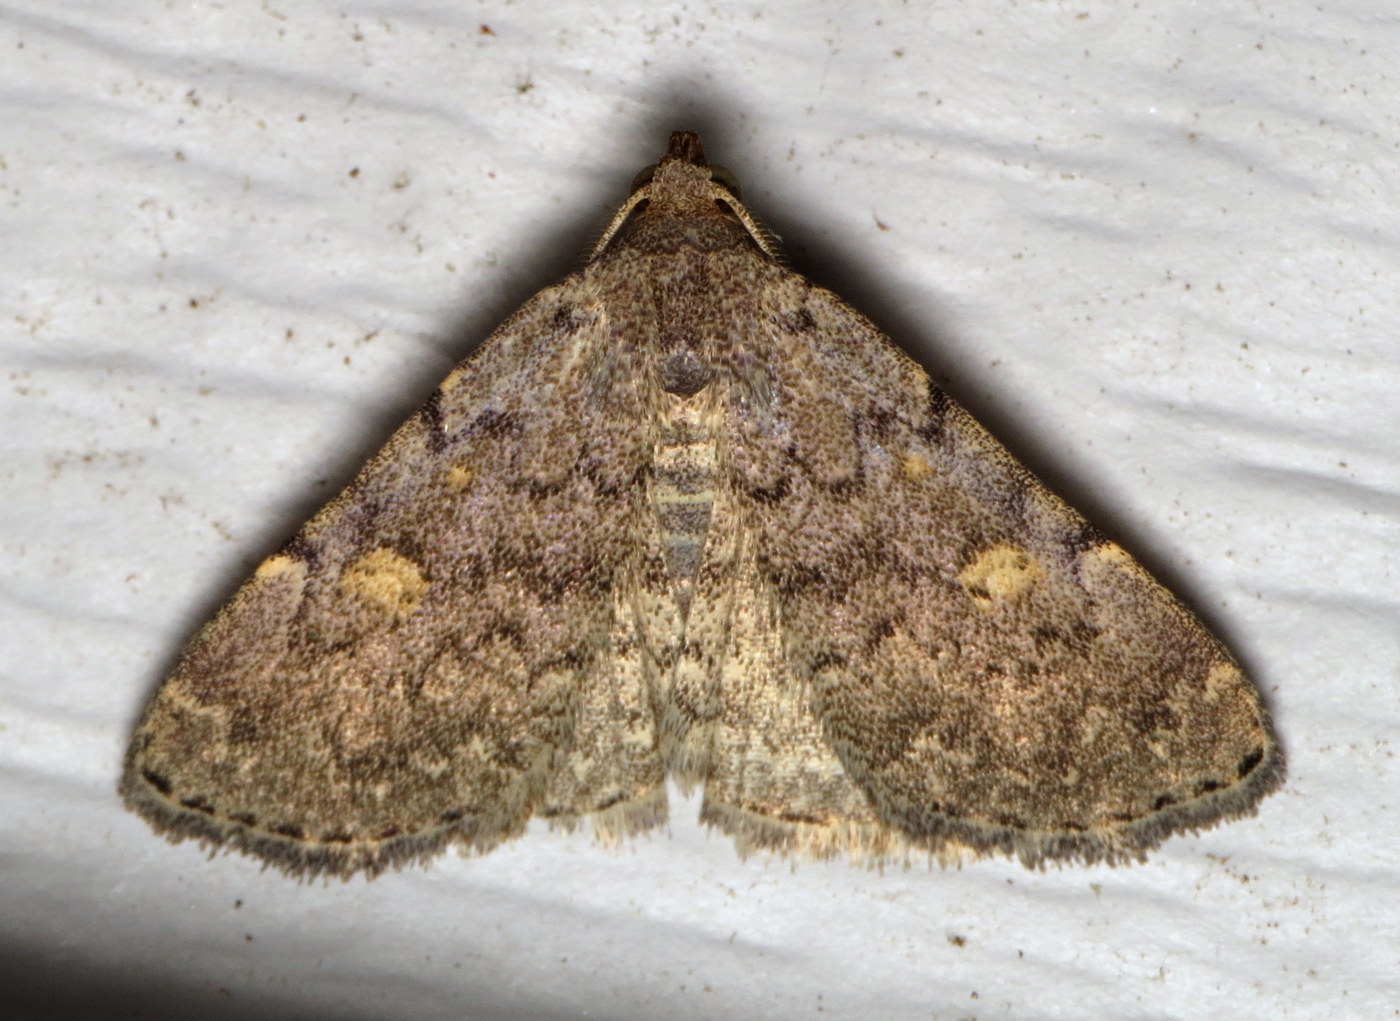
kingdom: Animalia
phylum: Arthropoda
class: Insecta
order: Lepidoptera
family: Erebidae
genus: Idia
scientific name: Idia aemula
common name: Common idia moth
